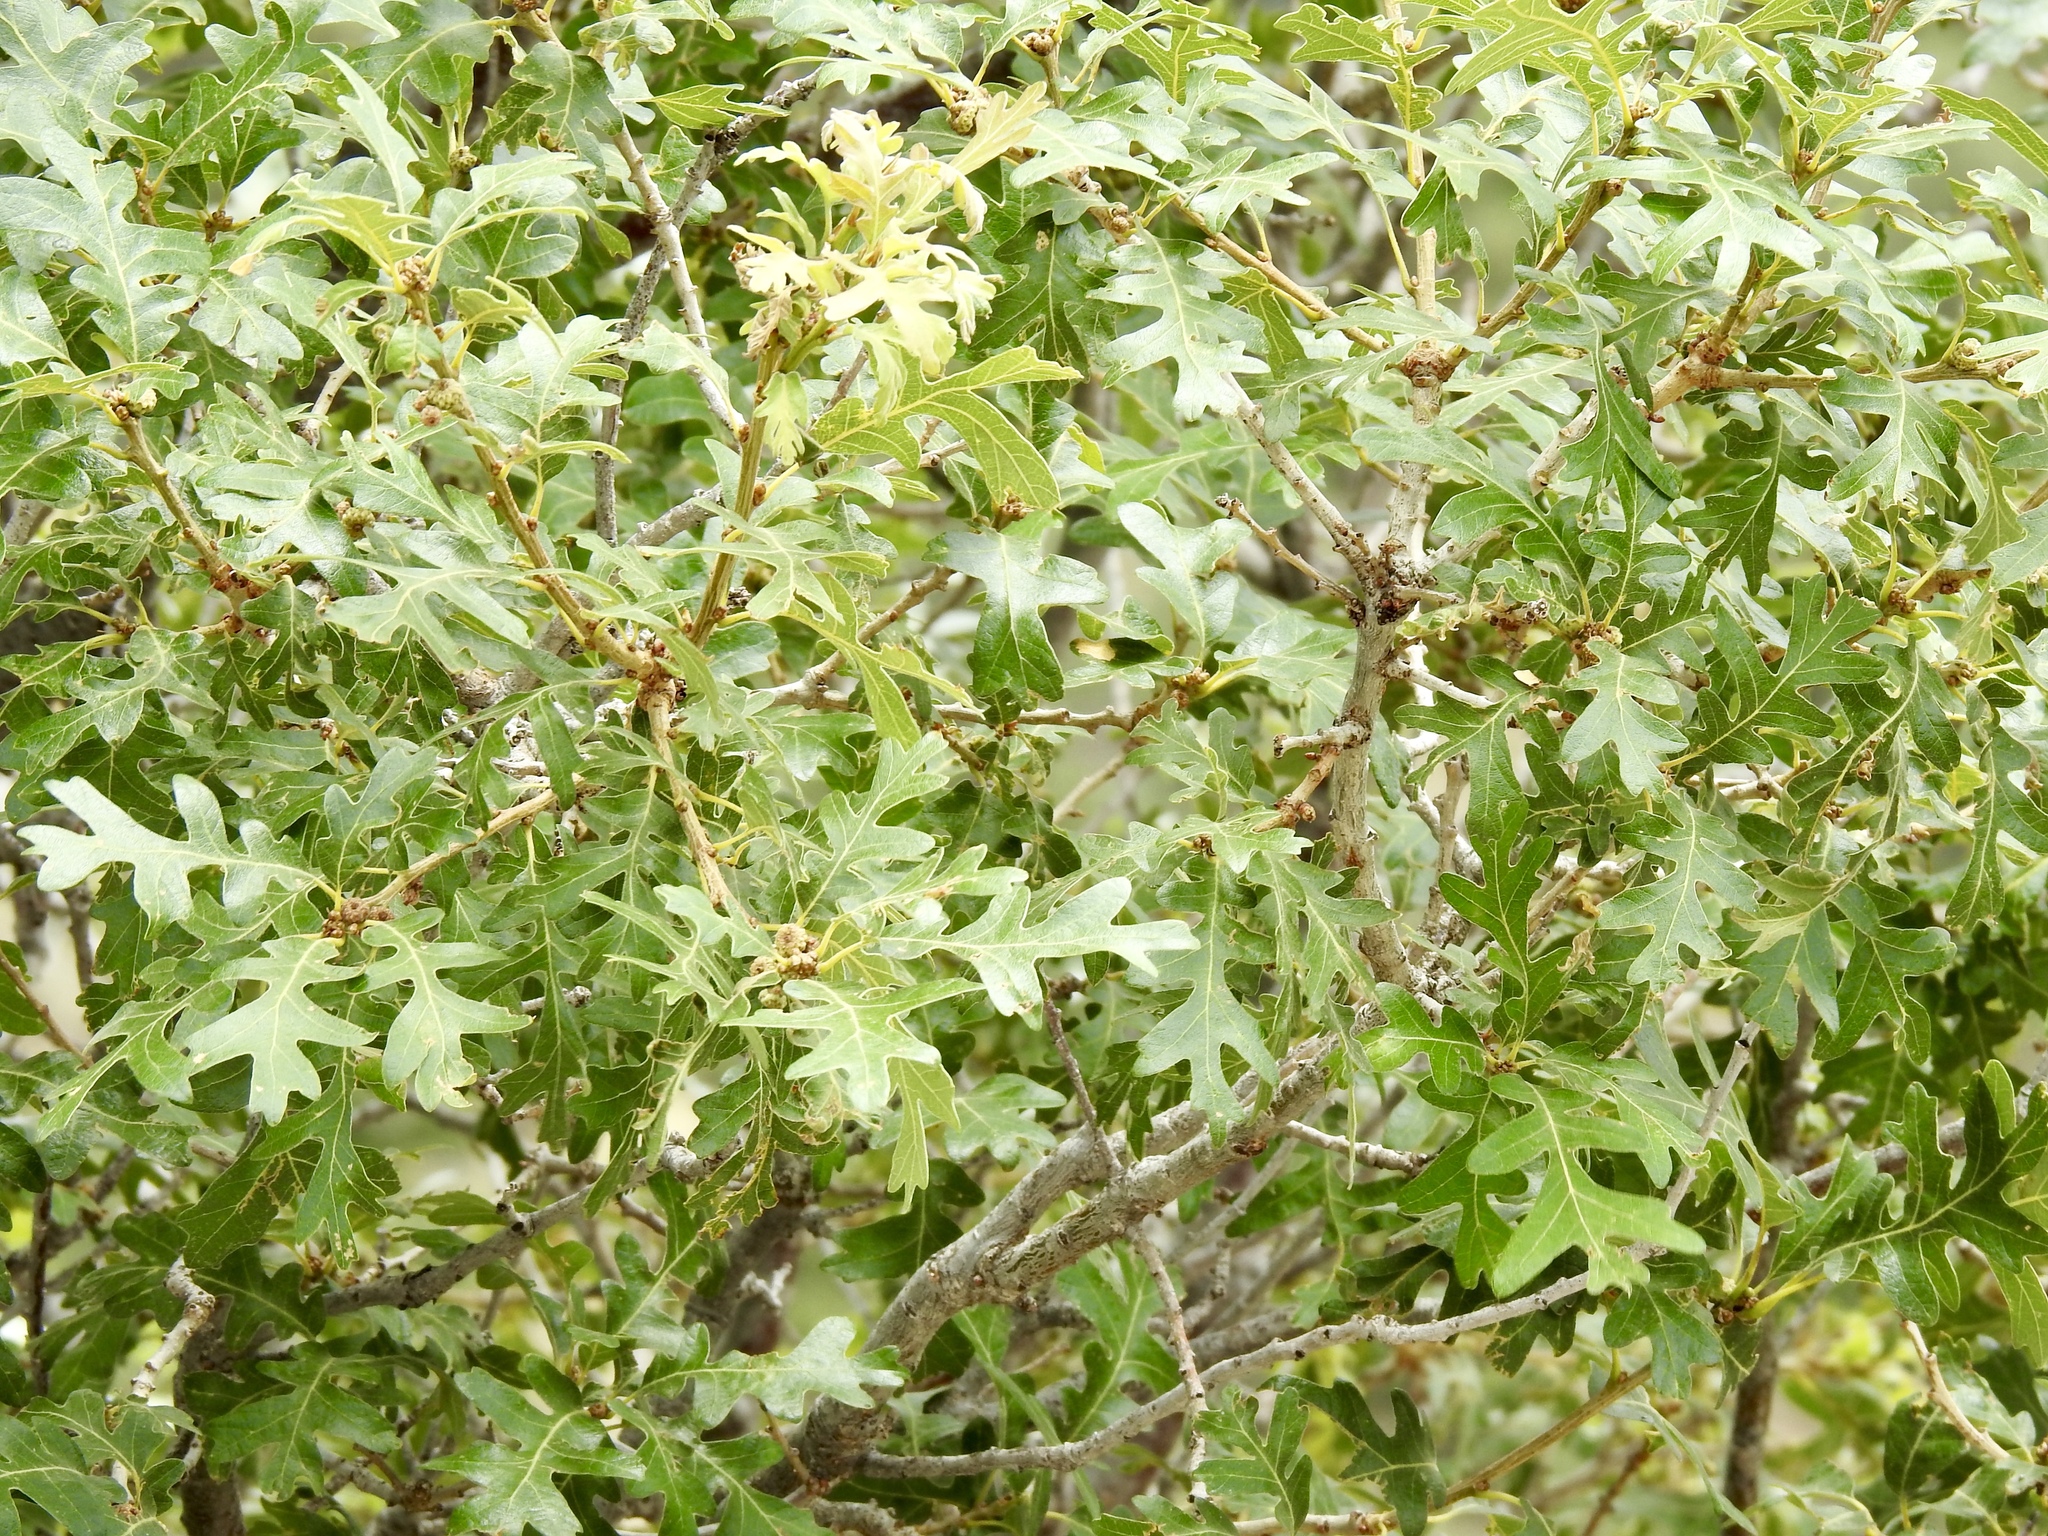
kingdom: Plantae
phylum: Tracheophyta
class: Magnoliopsida
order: Fagales
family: Fagaceae
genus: Quercus
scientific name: Quercus gambelii
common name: Gambel oak
